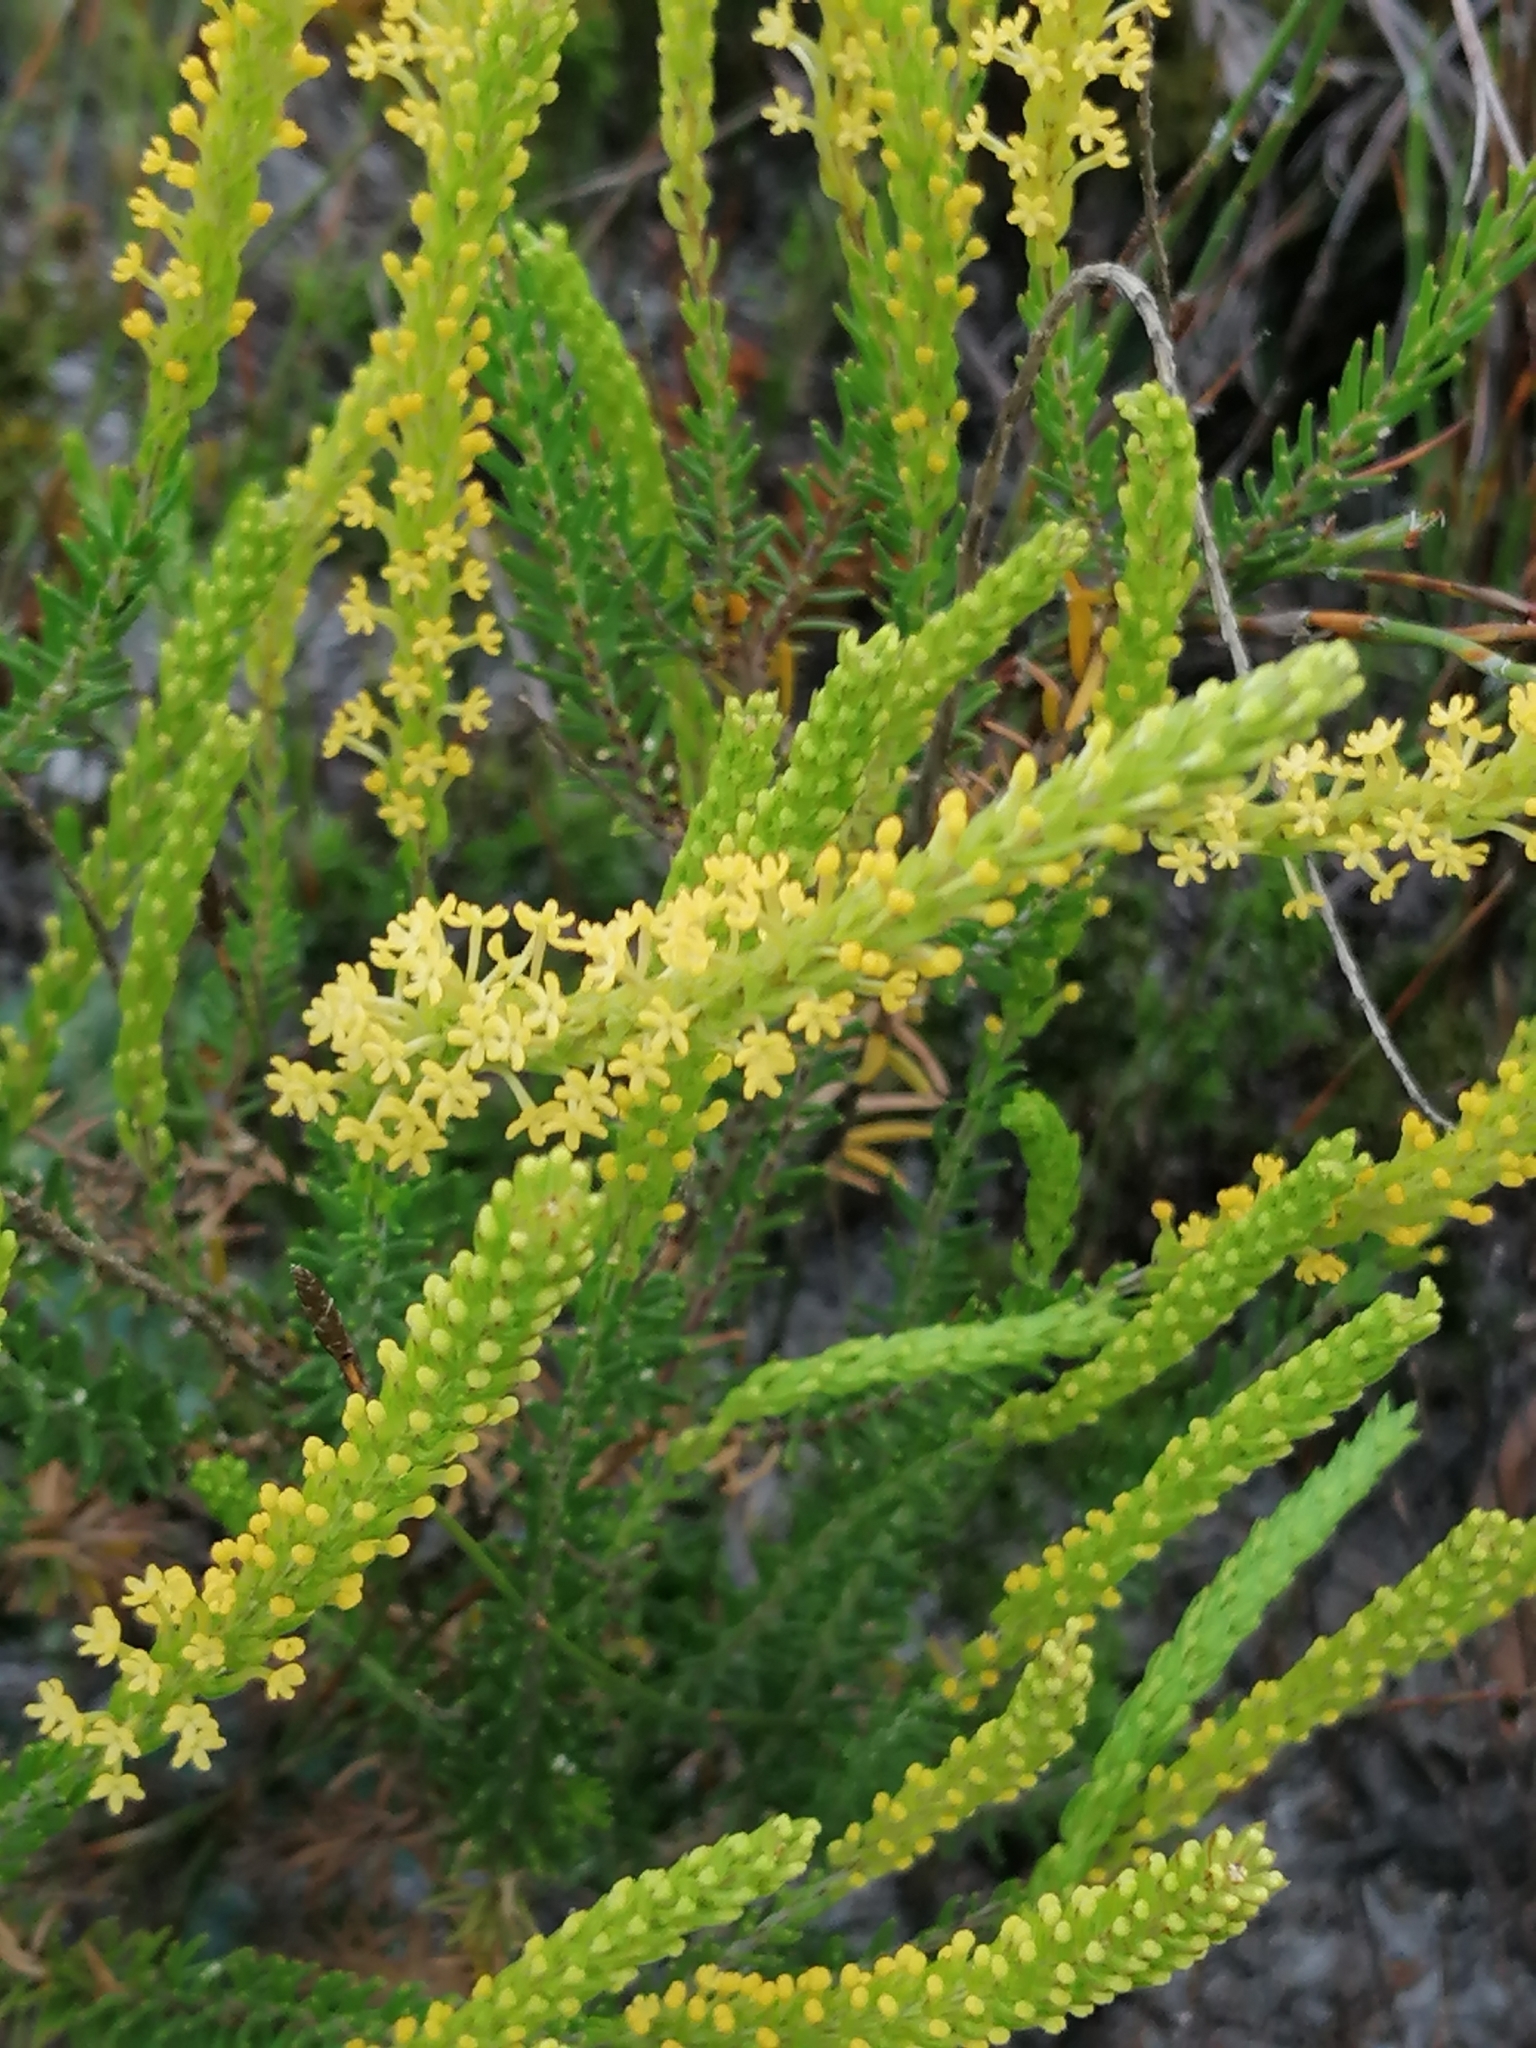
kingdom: Plantae
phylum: Tracheophyta
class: Magnoliopsida
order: Lamiales
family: Scrophulariaceae
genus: Microdon
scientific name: Microdon dubius
